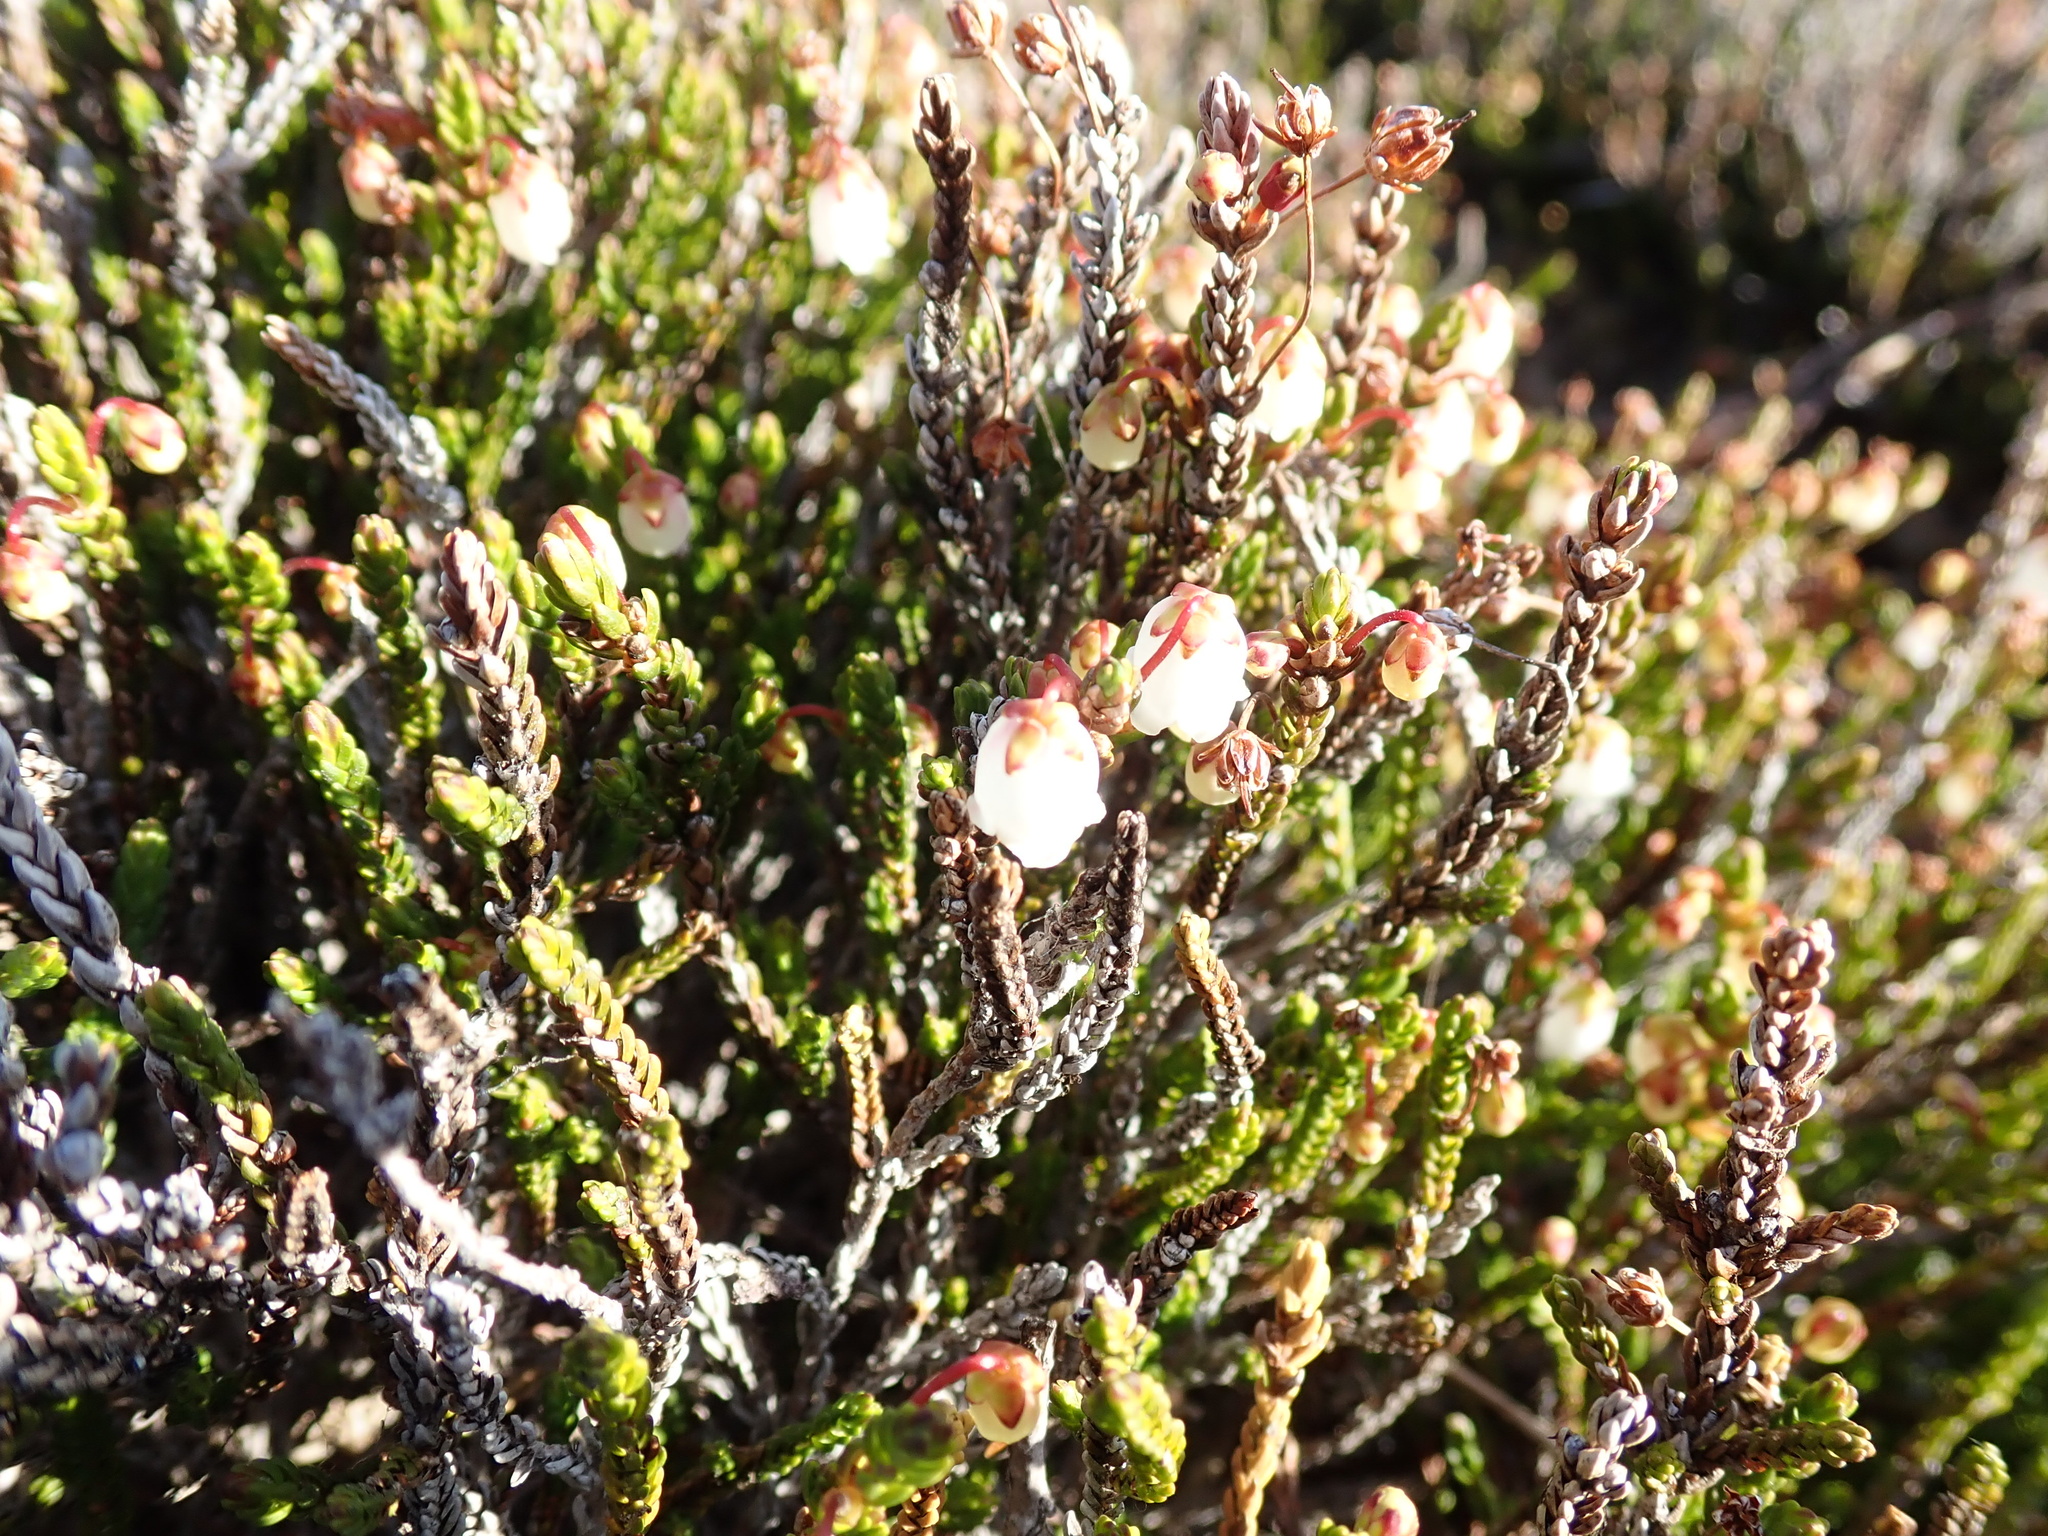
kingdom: Plantae
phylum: Tracheophyta
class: Magnoliopsida
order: Ericales
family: Ericaceae
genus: Cassiope
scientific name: Cassiope mertensiana
